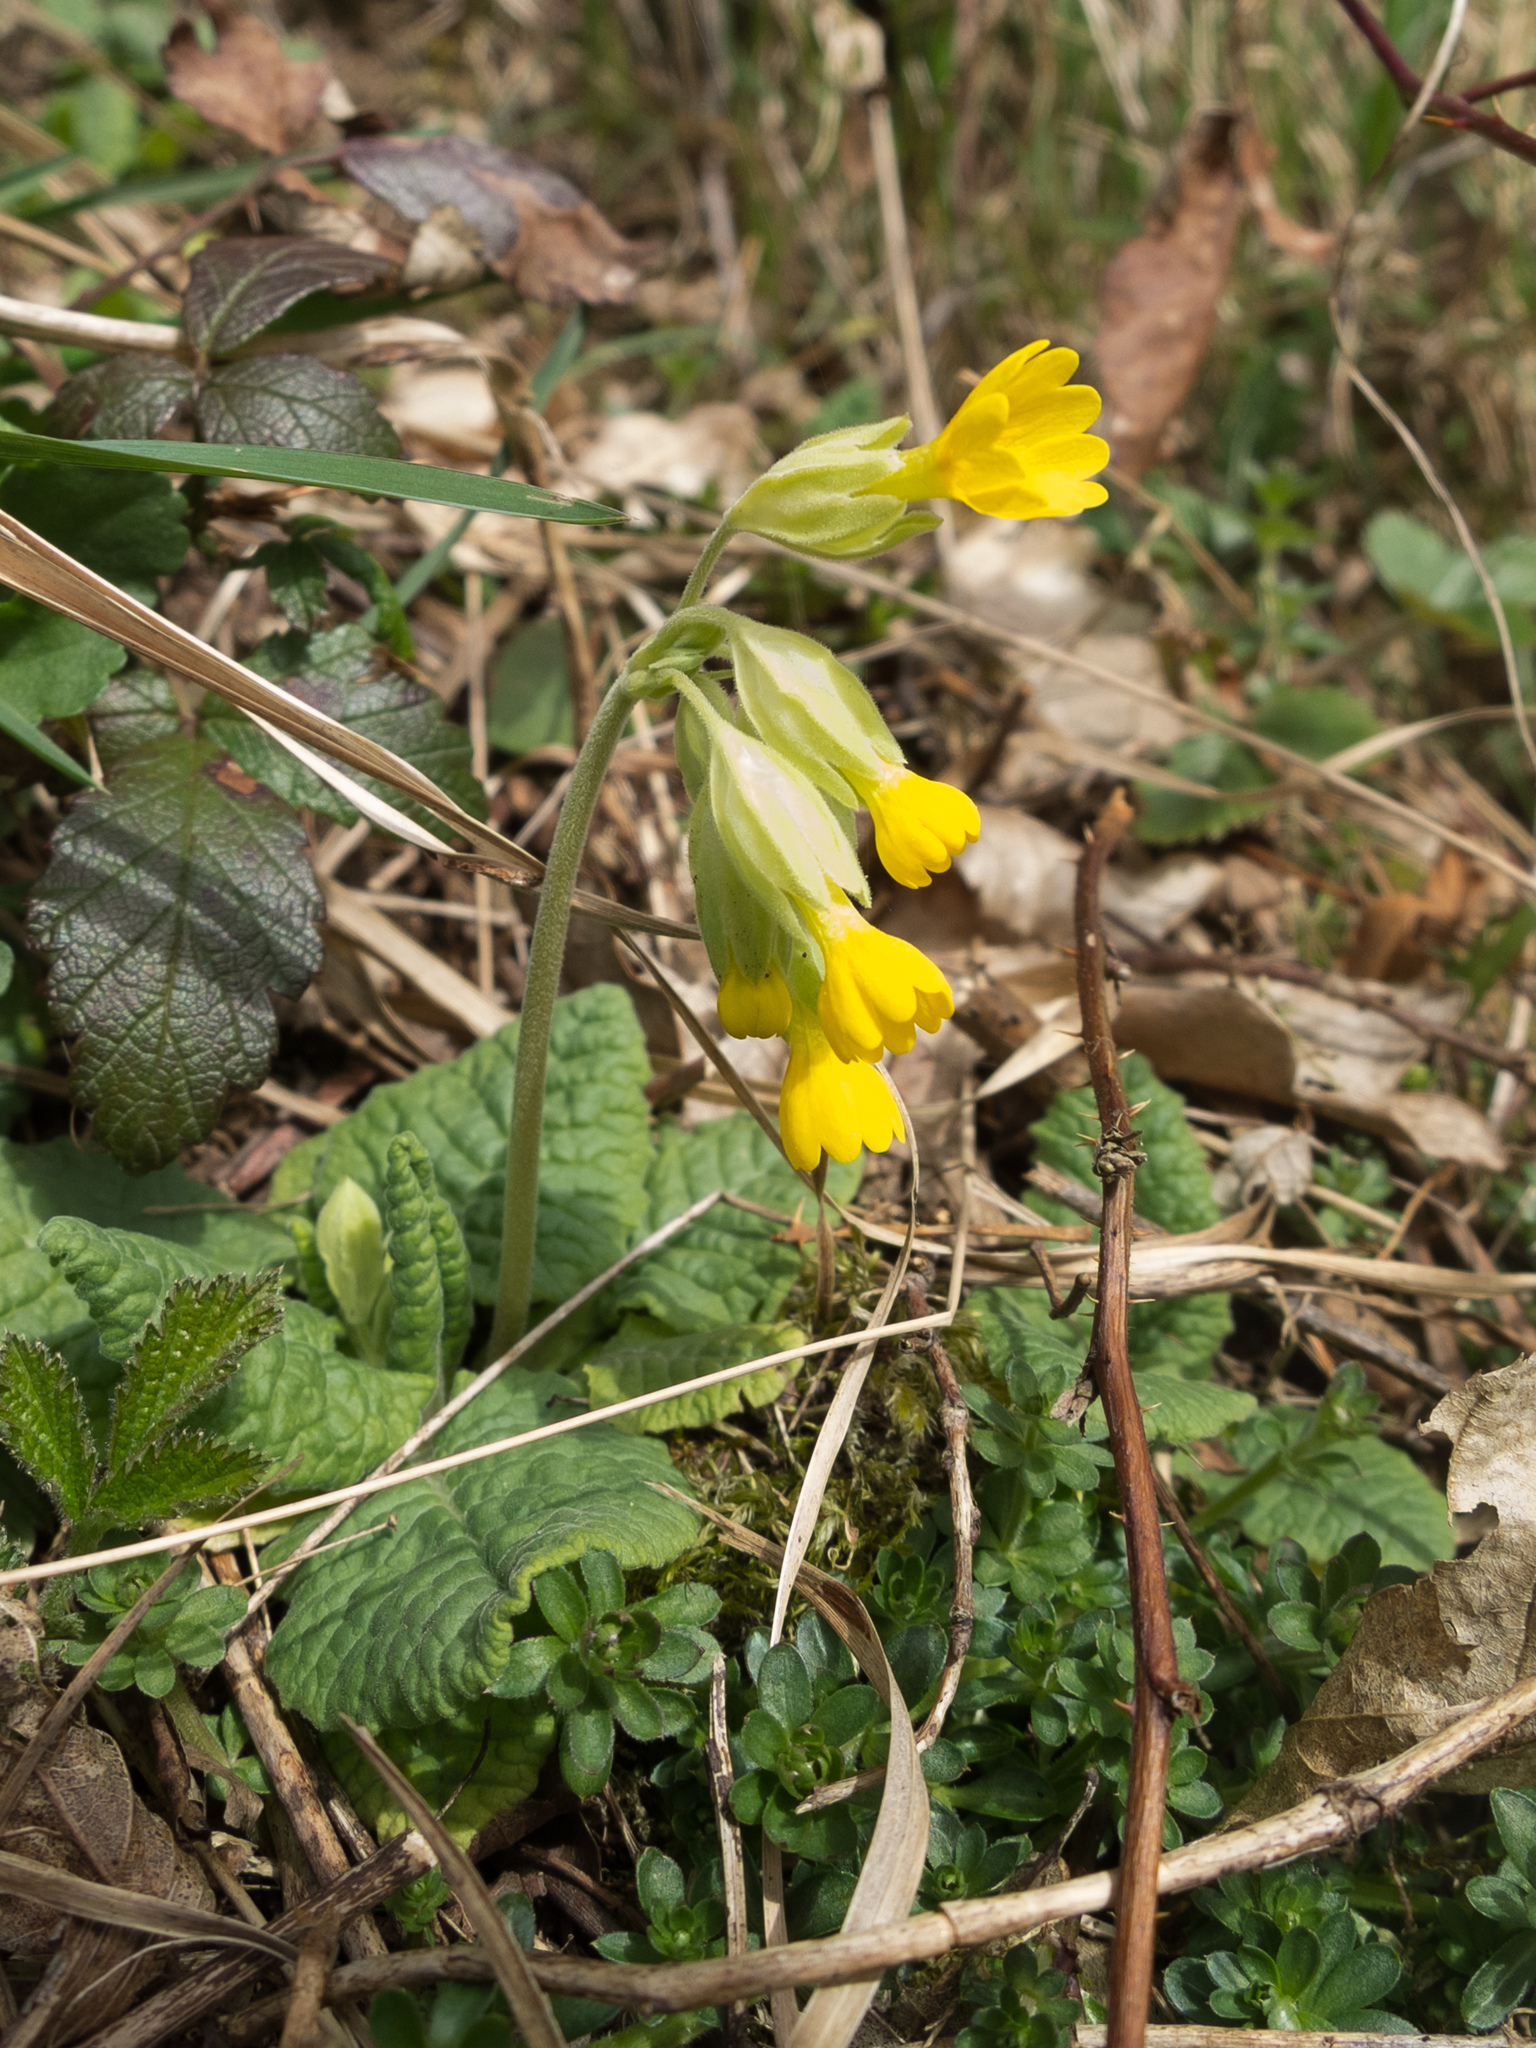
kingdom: Plantae
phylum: Tracheophyta
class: Magnoliopsida
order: Ericales
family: Primulaceae
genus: Primula
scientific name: Primula veris
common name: Cowslip
